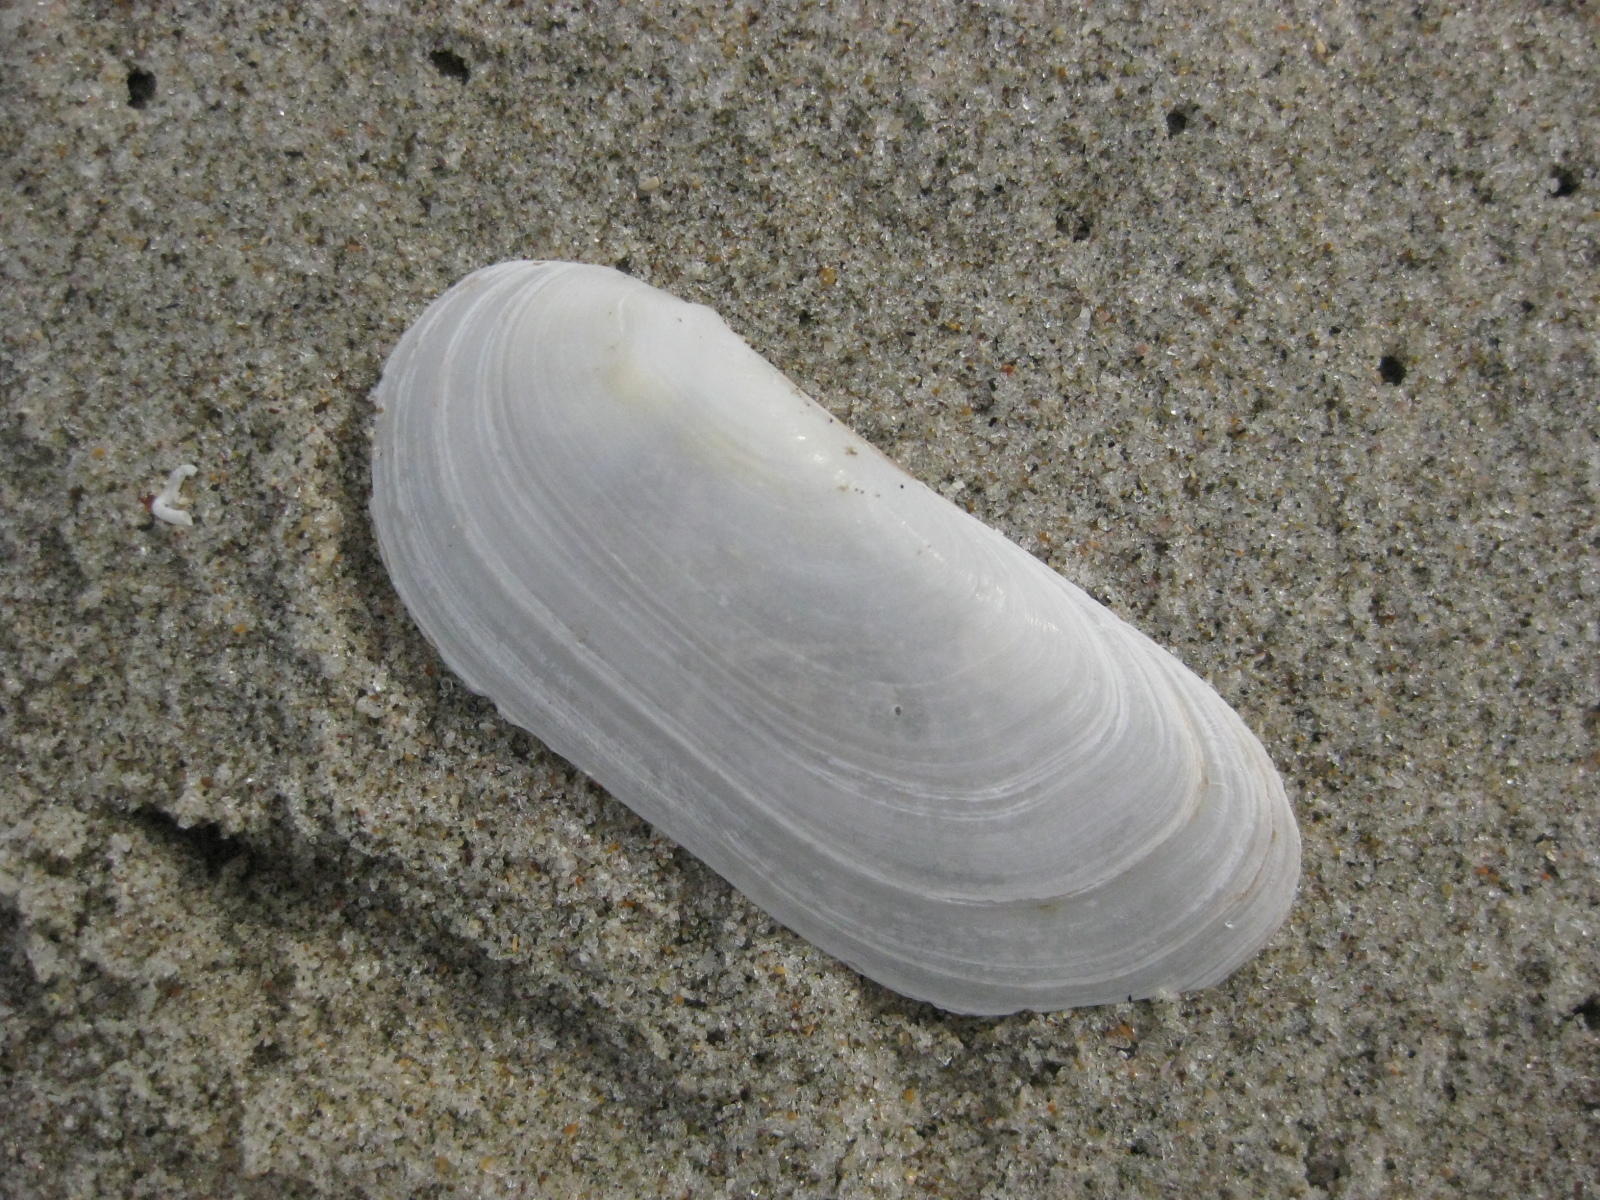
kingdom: Animalia
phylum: Mollusca
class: Bivalvia
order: Venerida
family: Mactridae
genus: Zenatia
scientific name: Zenatia acinaces
